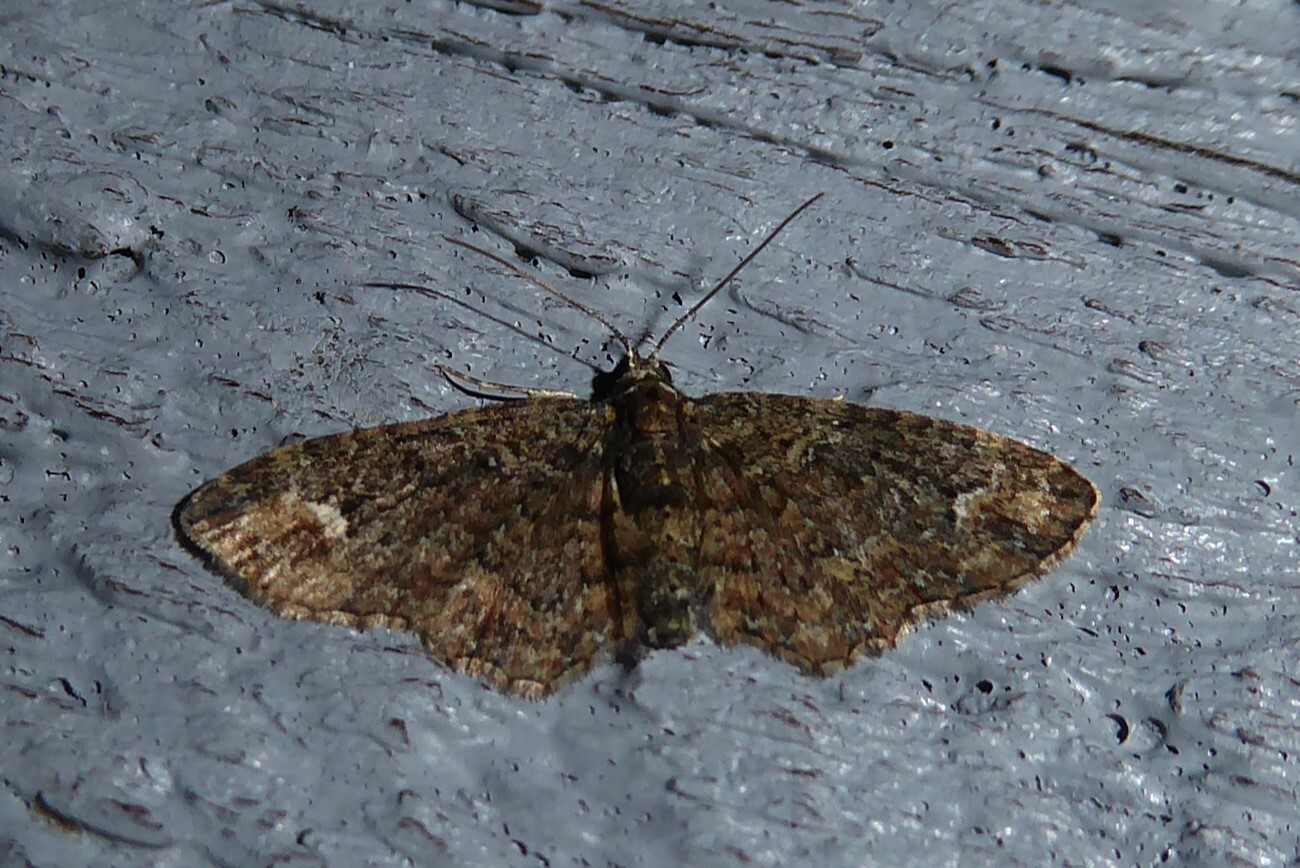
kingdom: Animalia
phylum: Arthropoda
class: Insecta
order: Lepidoptera
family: Geometridae
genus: Pasiphilodes
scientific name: Pasiphilodes testulata
